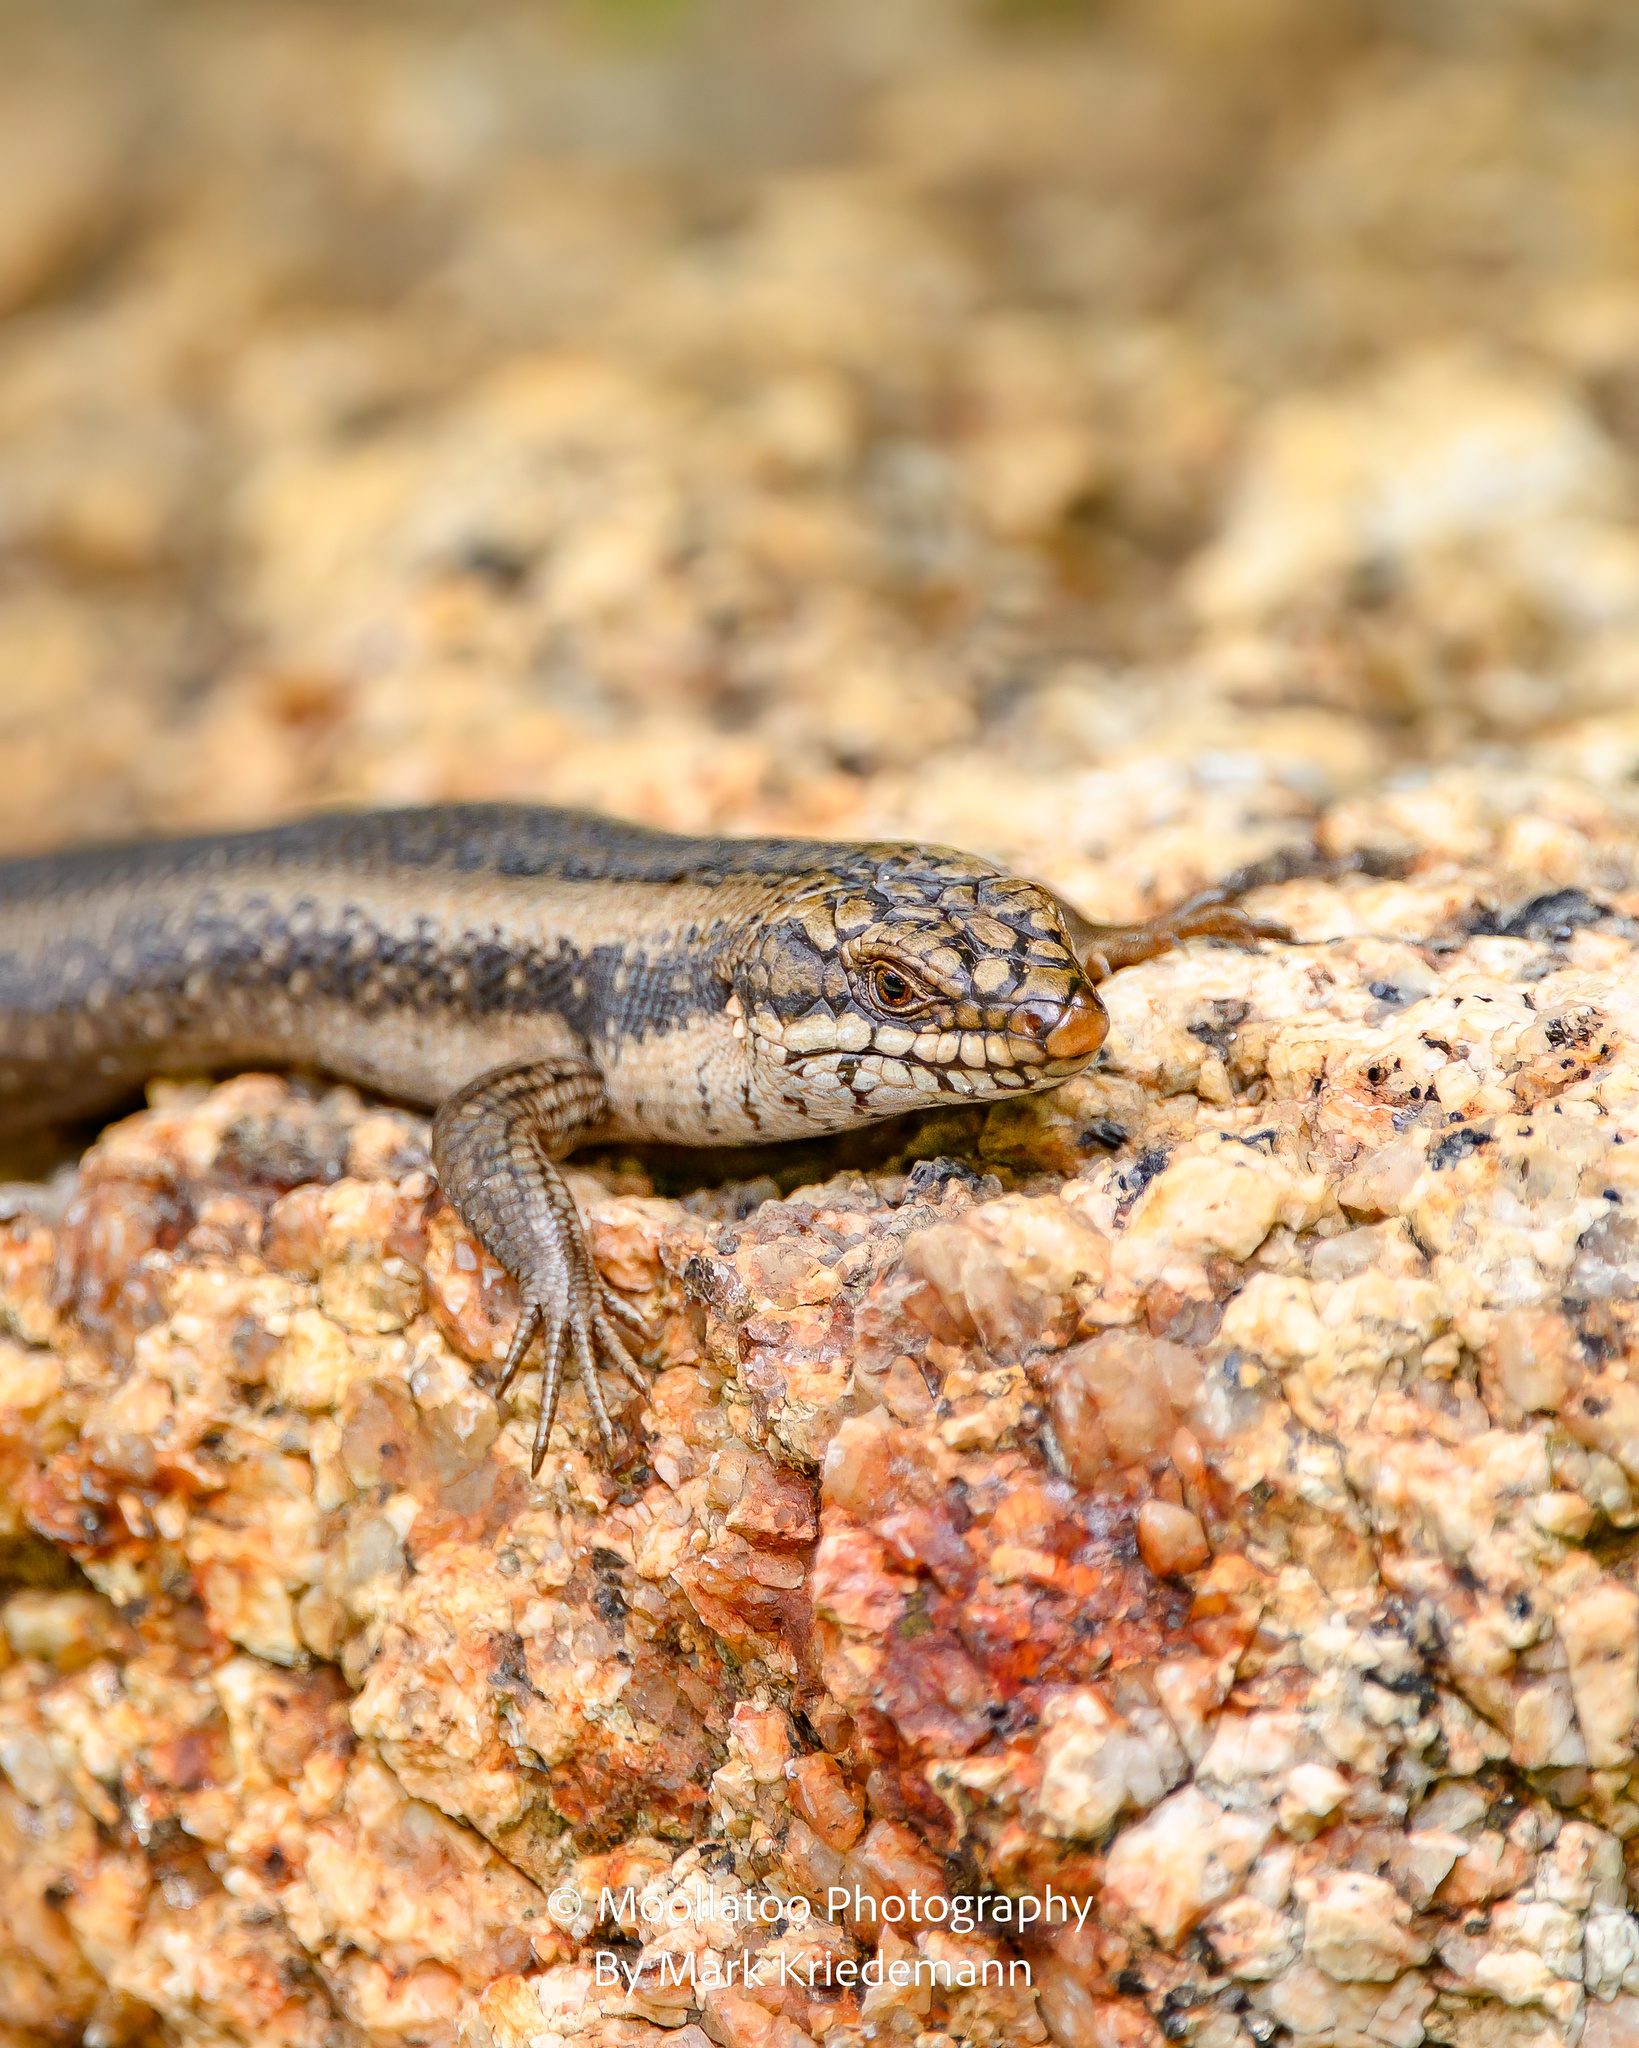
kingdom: Animalia
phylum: Chordata
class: Squamata
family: Scincidae
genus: Egernia
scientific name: Egernia striolata
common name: Tree skink
